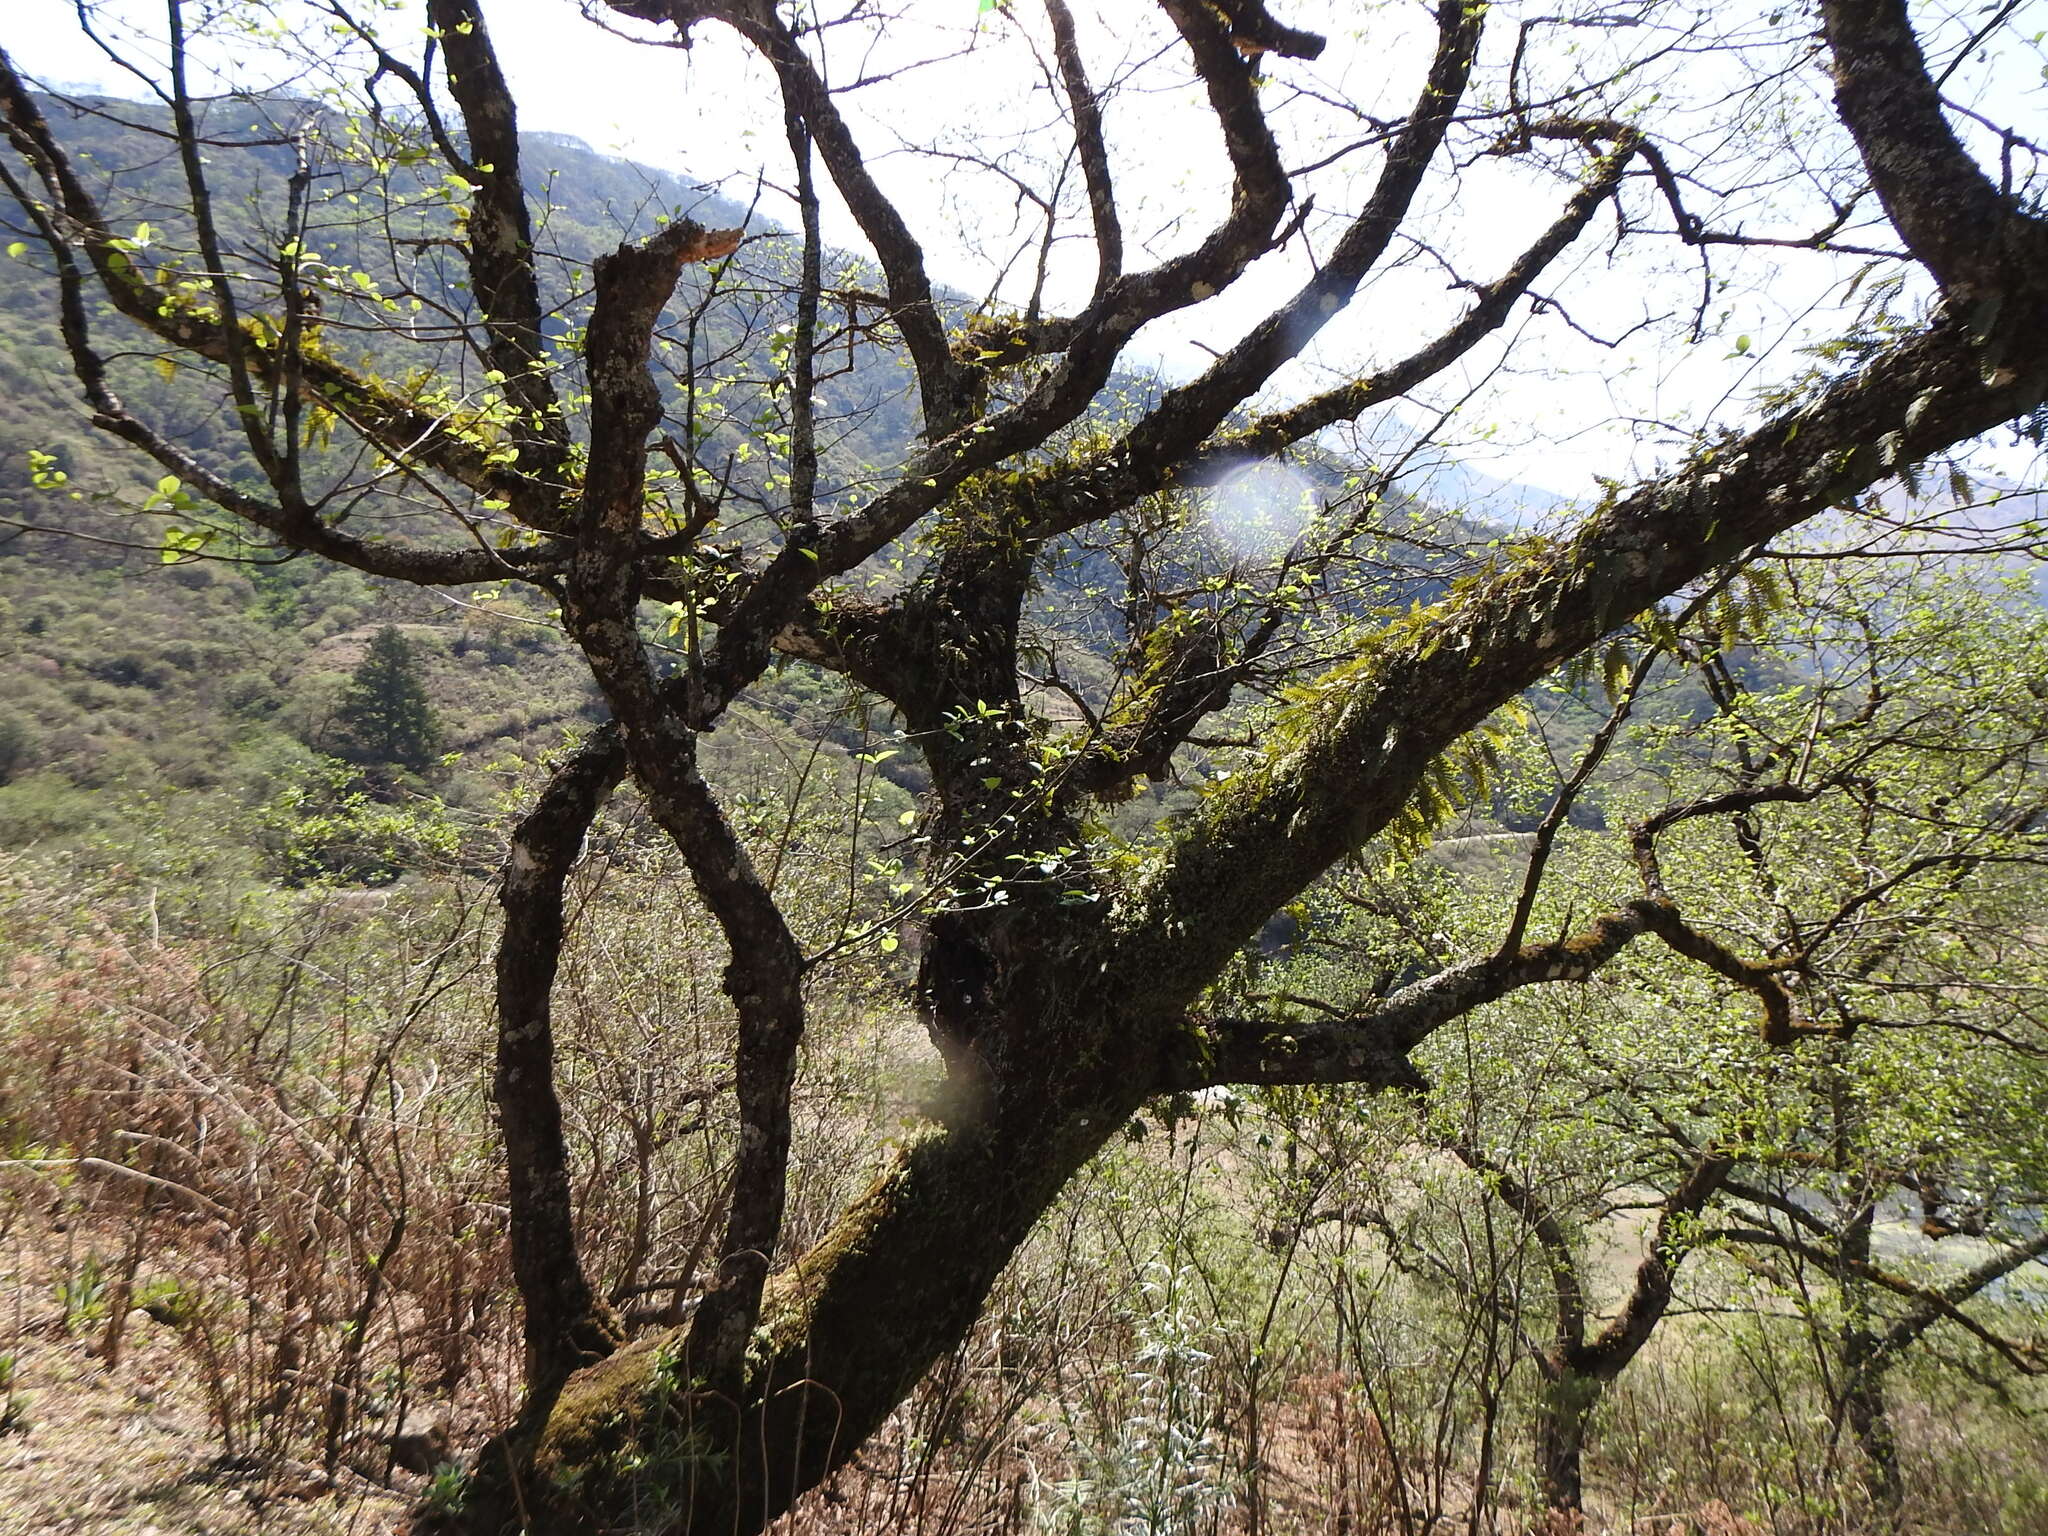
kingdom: Plantae
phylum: Tracheophyta
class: Magnoliopsida
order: Fagales
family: Betulaceae
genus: Alnus
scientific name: Alnus acuminata
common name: Alder
